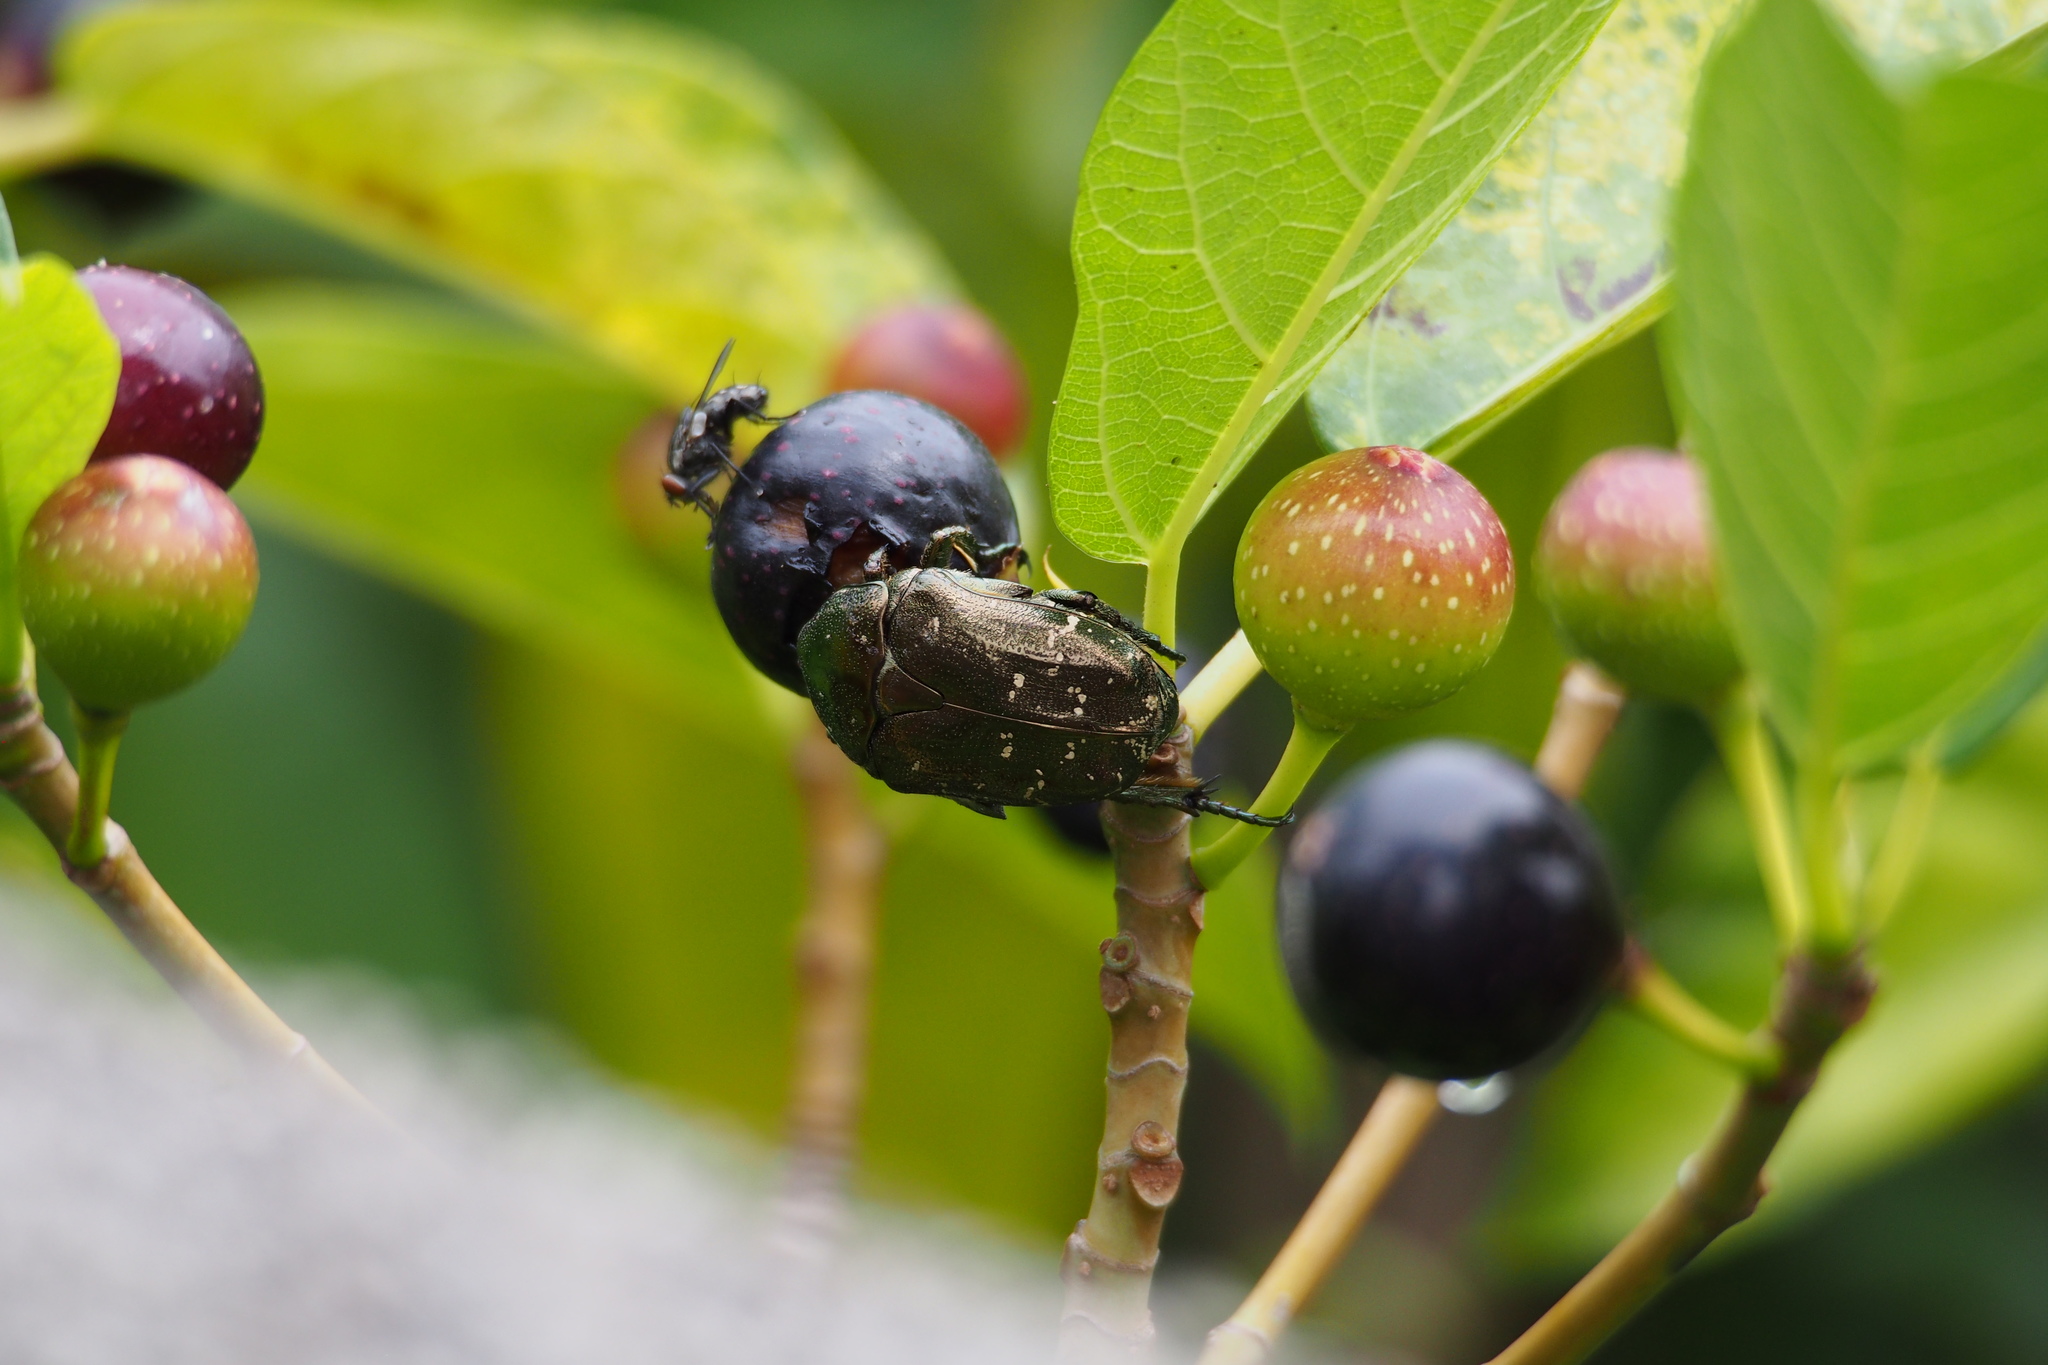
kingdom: Animalia
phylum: Arthropoda
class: Insecta
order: Coleoptera
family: Scarabaeidae
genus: Protaetia
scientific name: Protaetia orientalis
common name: Oriental flower beetle
